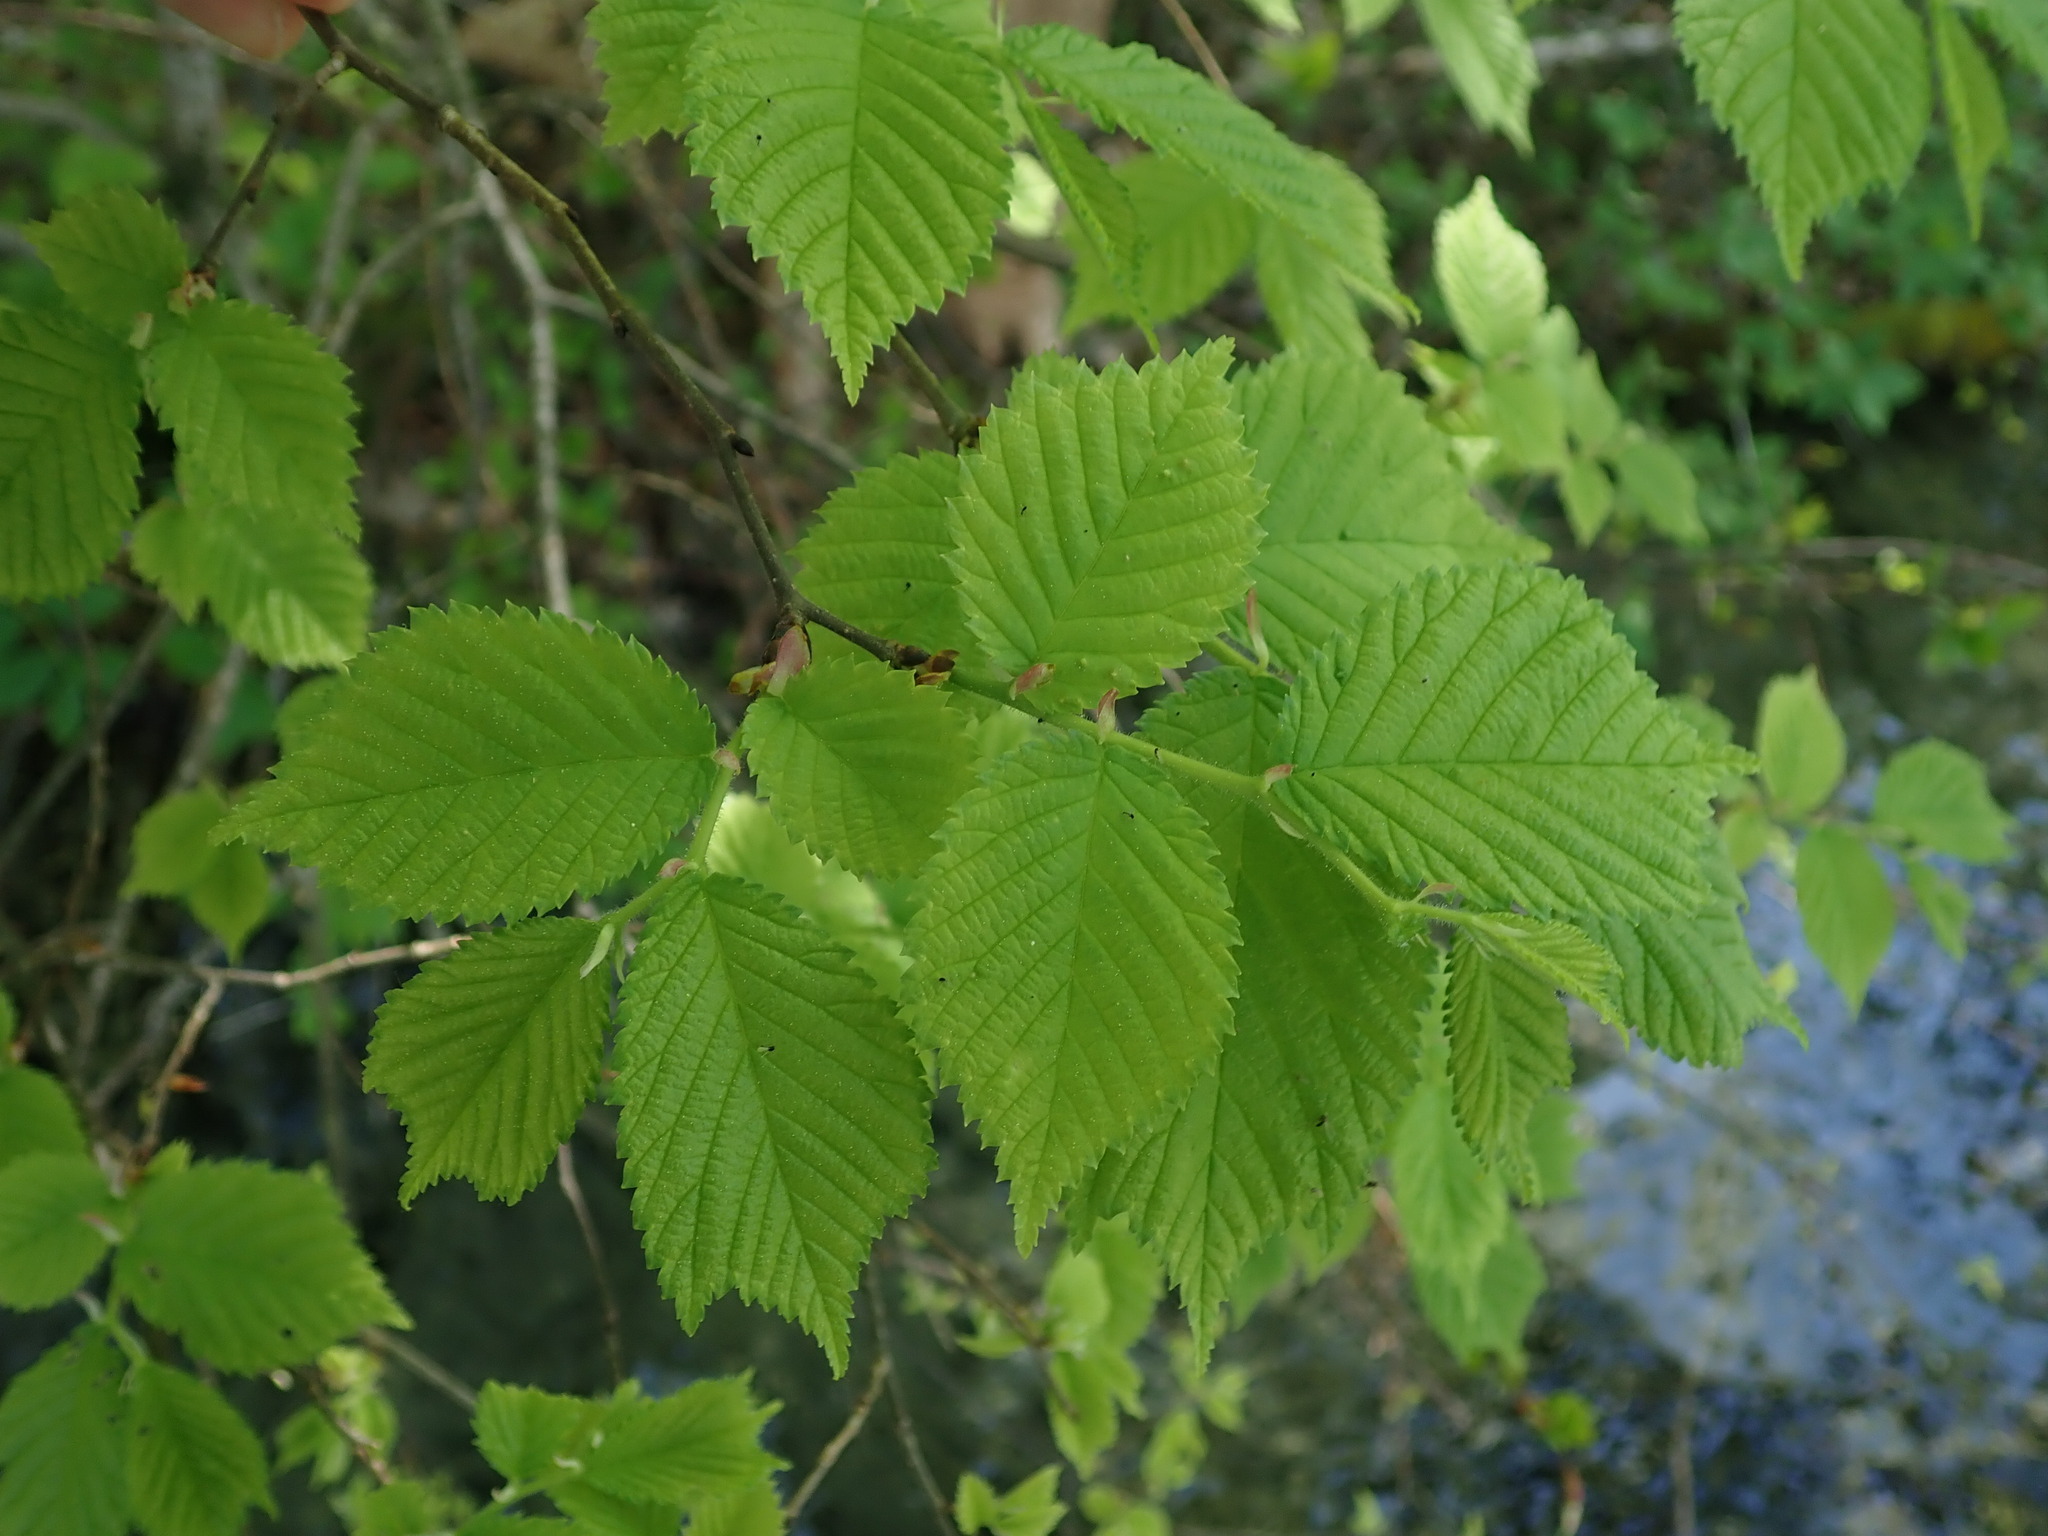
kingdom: Plantae
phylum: Tracheophyta
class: Magnoliopsida
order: Rosales
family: Ulmaceae
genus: Ulmus
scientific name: Ulmus glabra
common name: Wych elm
